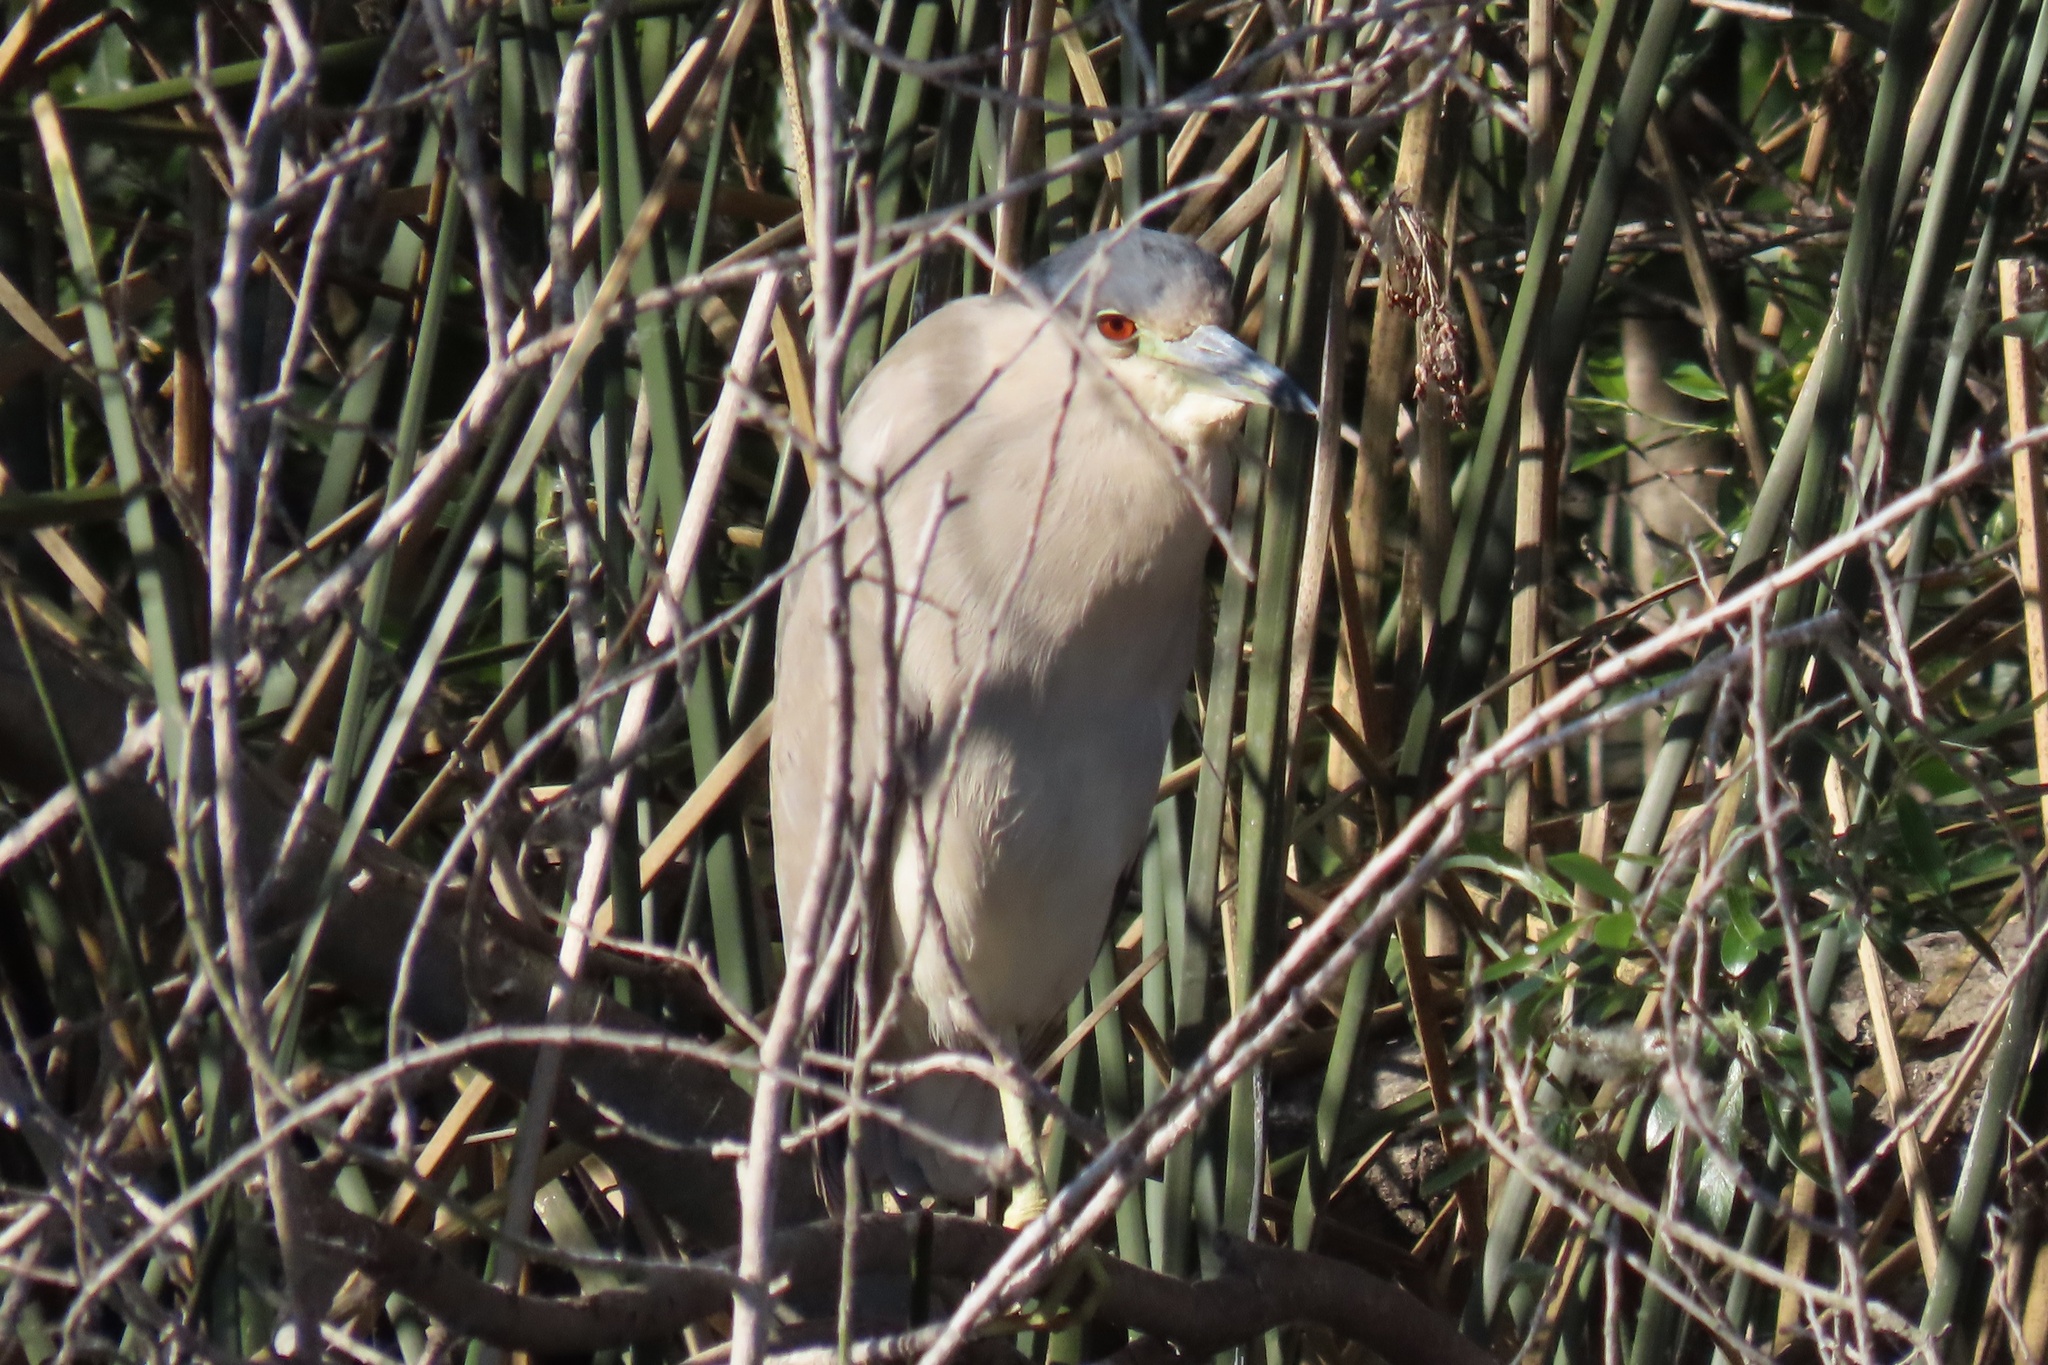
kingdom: Animalia
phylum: Chordata
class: Aves
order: Pelecaniformes
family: Ardeidae
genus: Nycticorax
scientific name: Nycticorax nycticorax
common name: Black-crowned night heron
